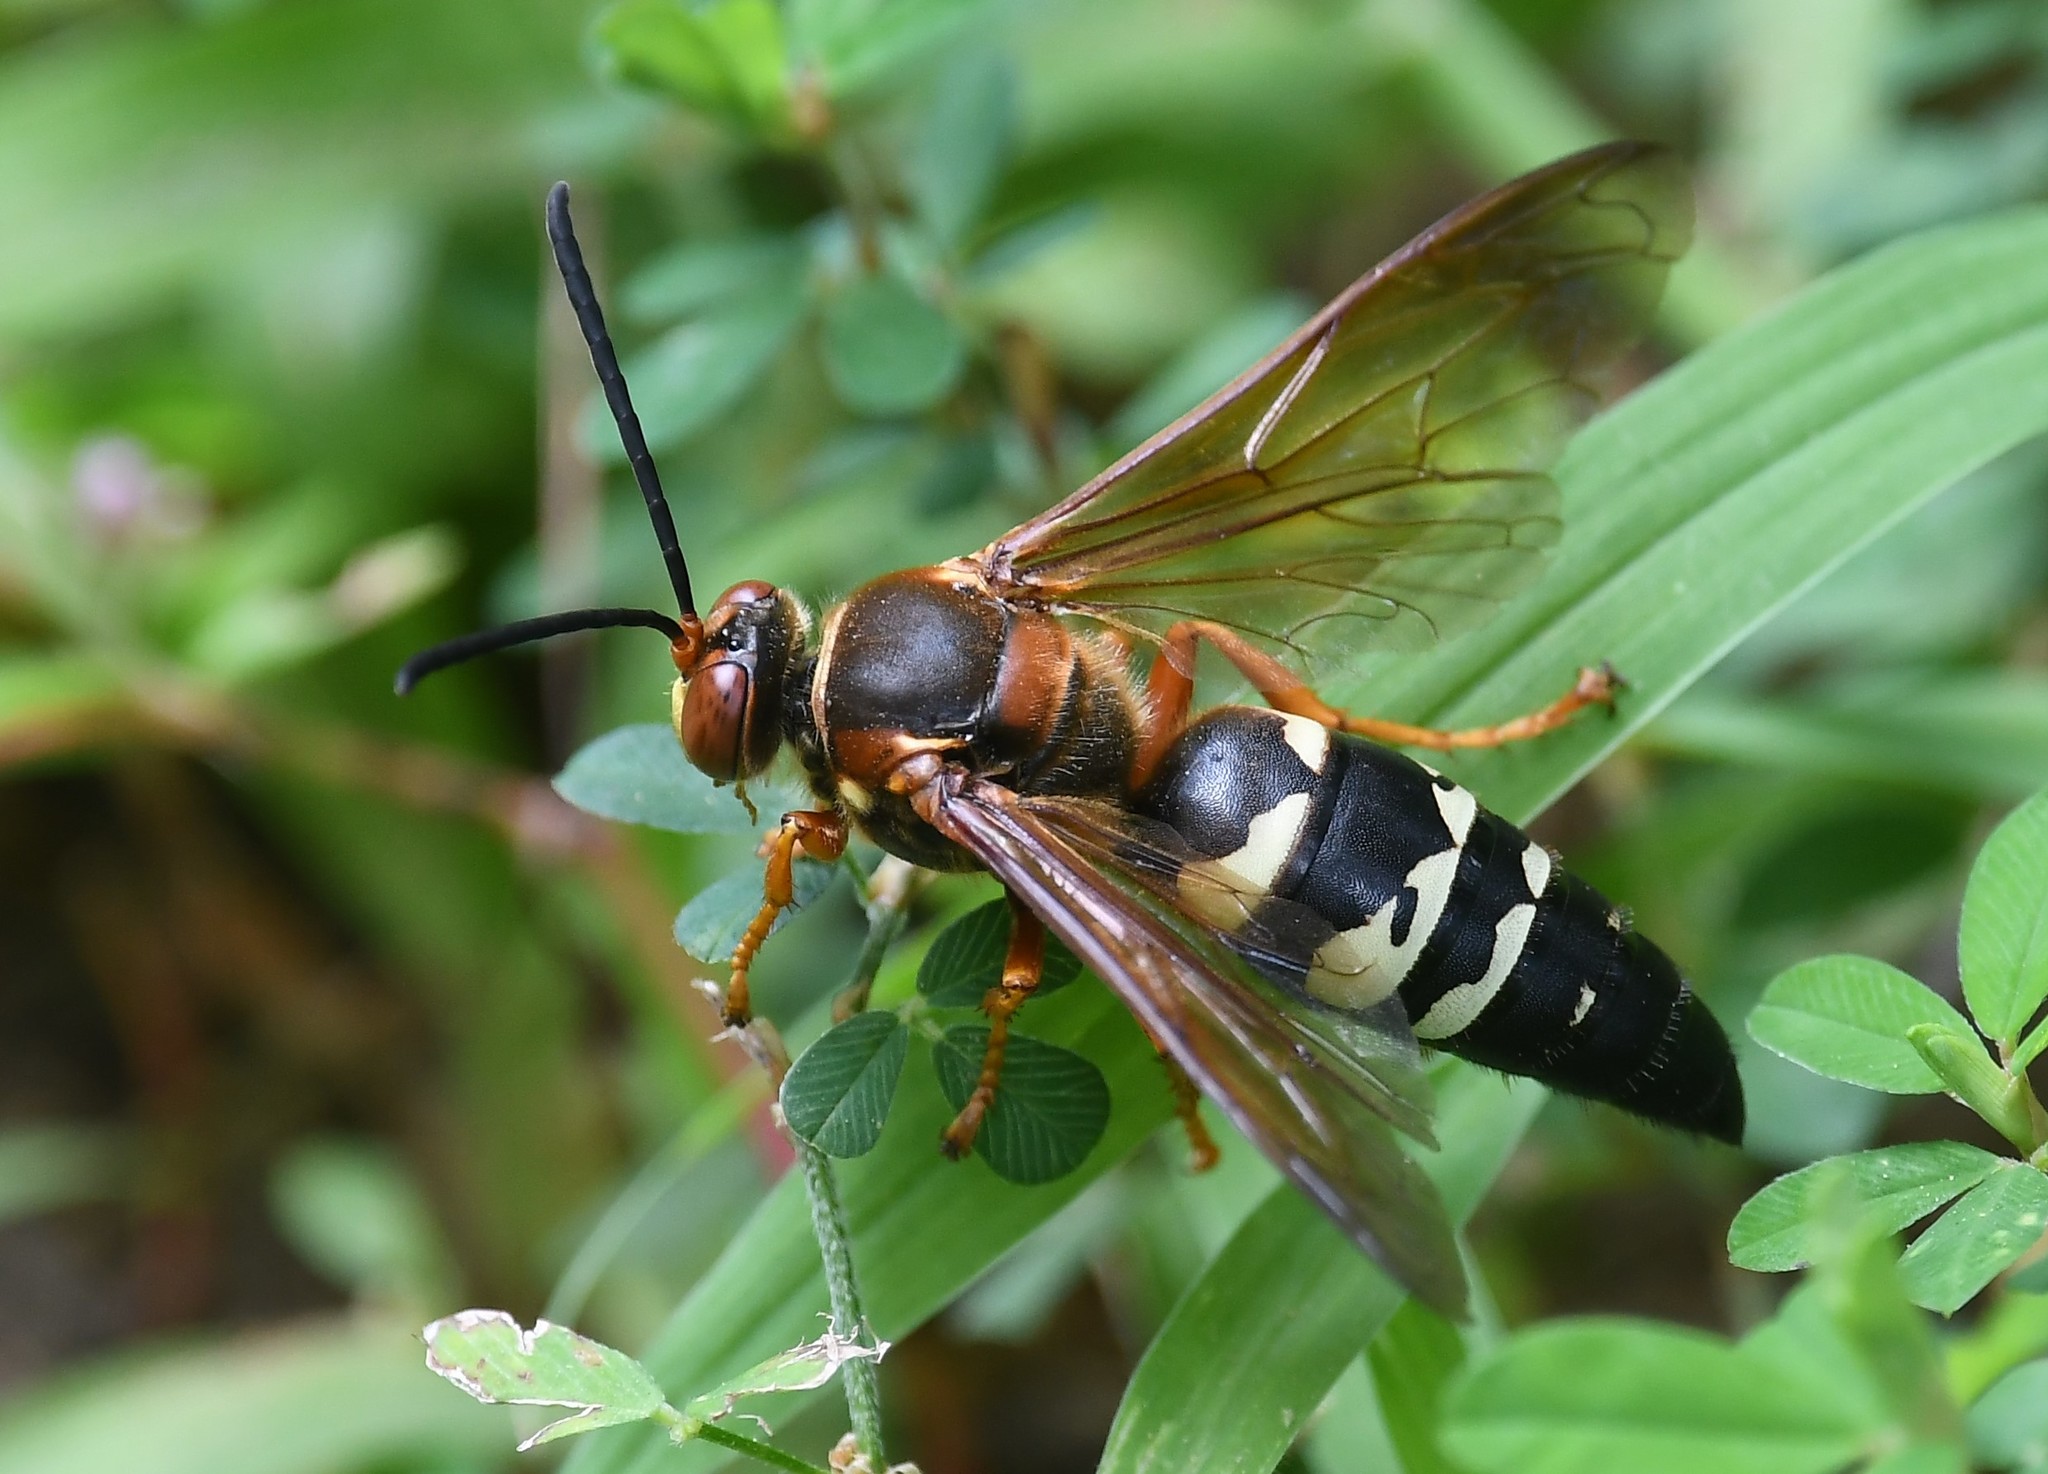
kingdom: Animalia
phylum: Arthropoda
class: Insecta
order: Hymenoptera
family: Crabronidae
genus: Sphecius
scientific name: Sphecius speciosus
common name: Cicada killer
